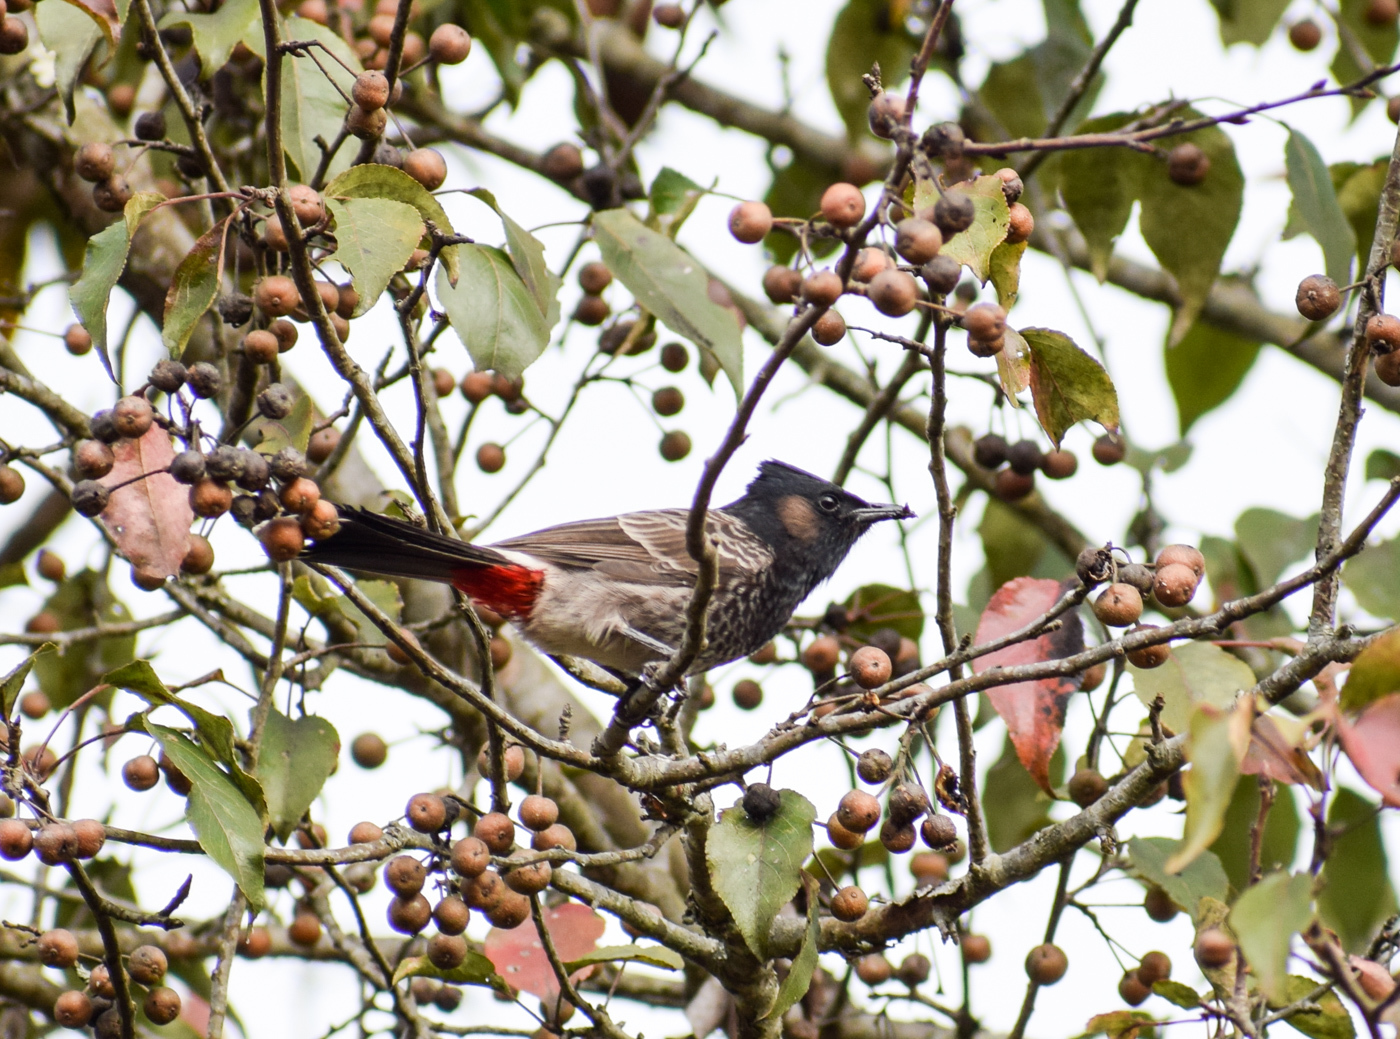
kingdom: Animalia
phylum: Chordata
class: Aves
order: Passeriformes
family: Pycnonotidae
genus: Pycnonotus
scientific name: Pycnonotus cafer
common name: Red-vented bulbul
